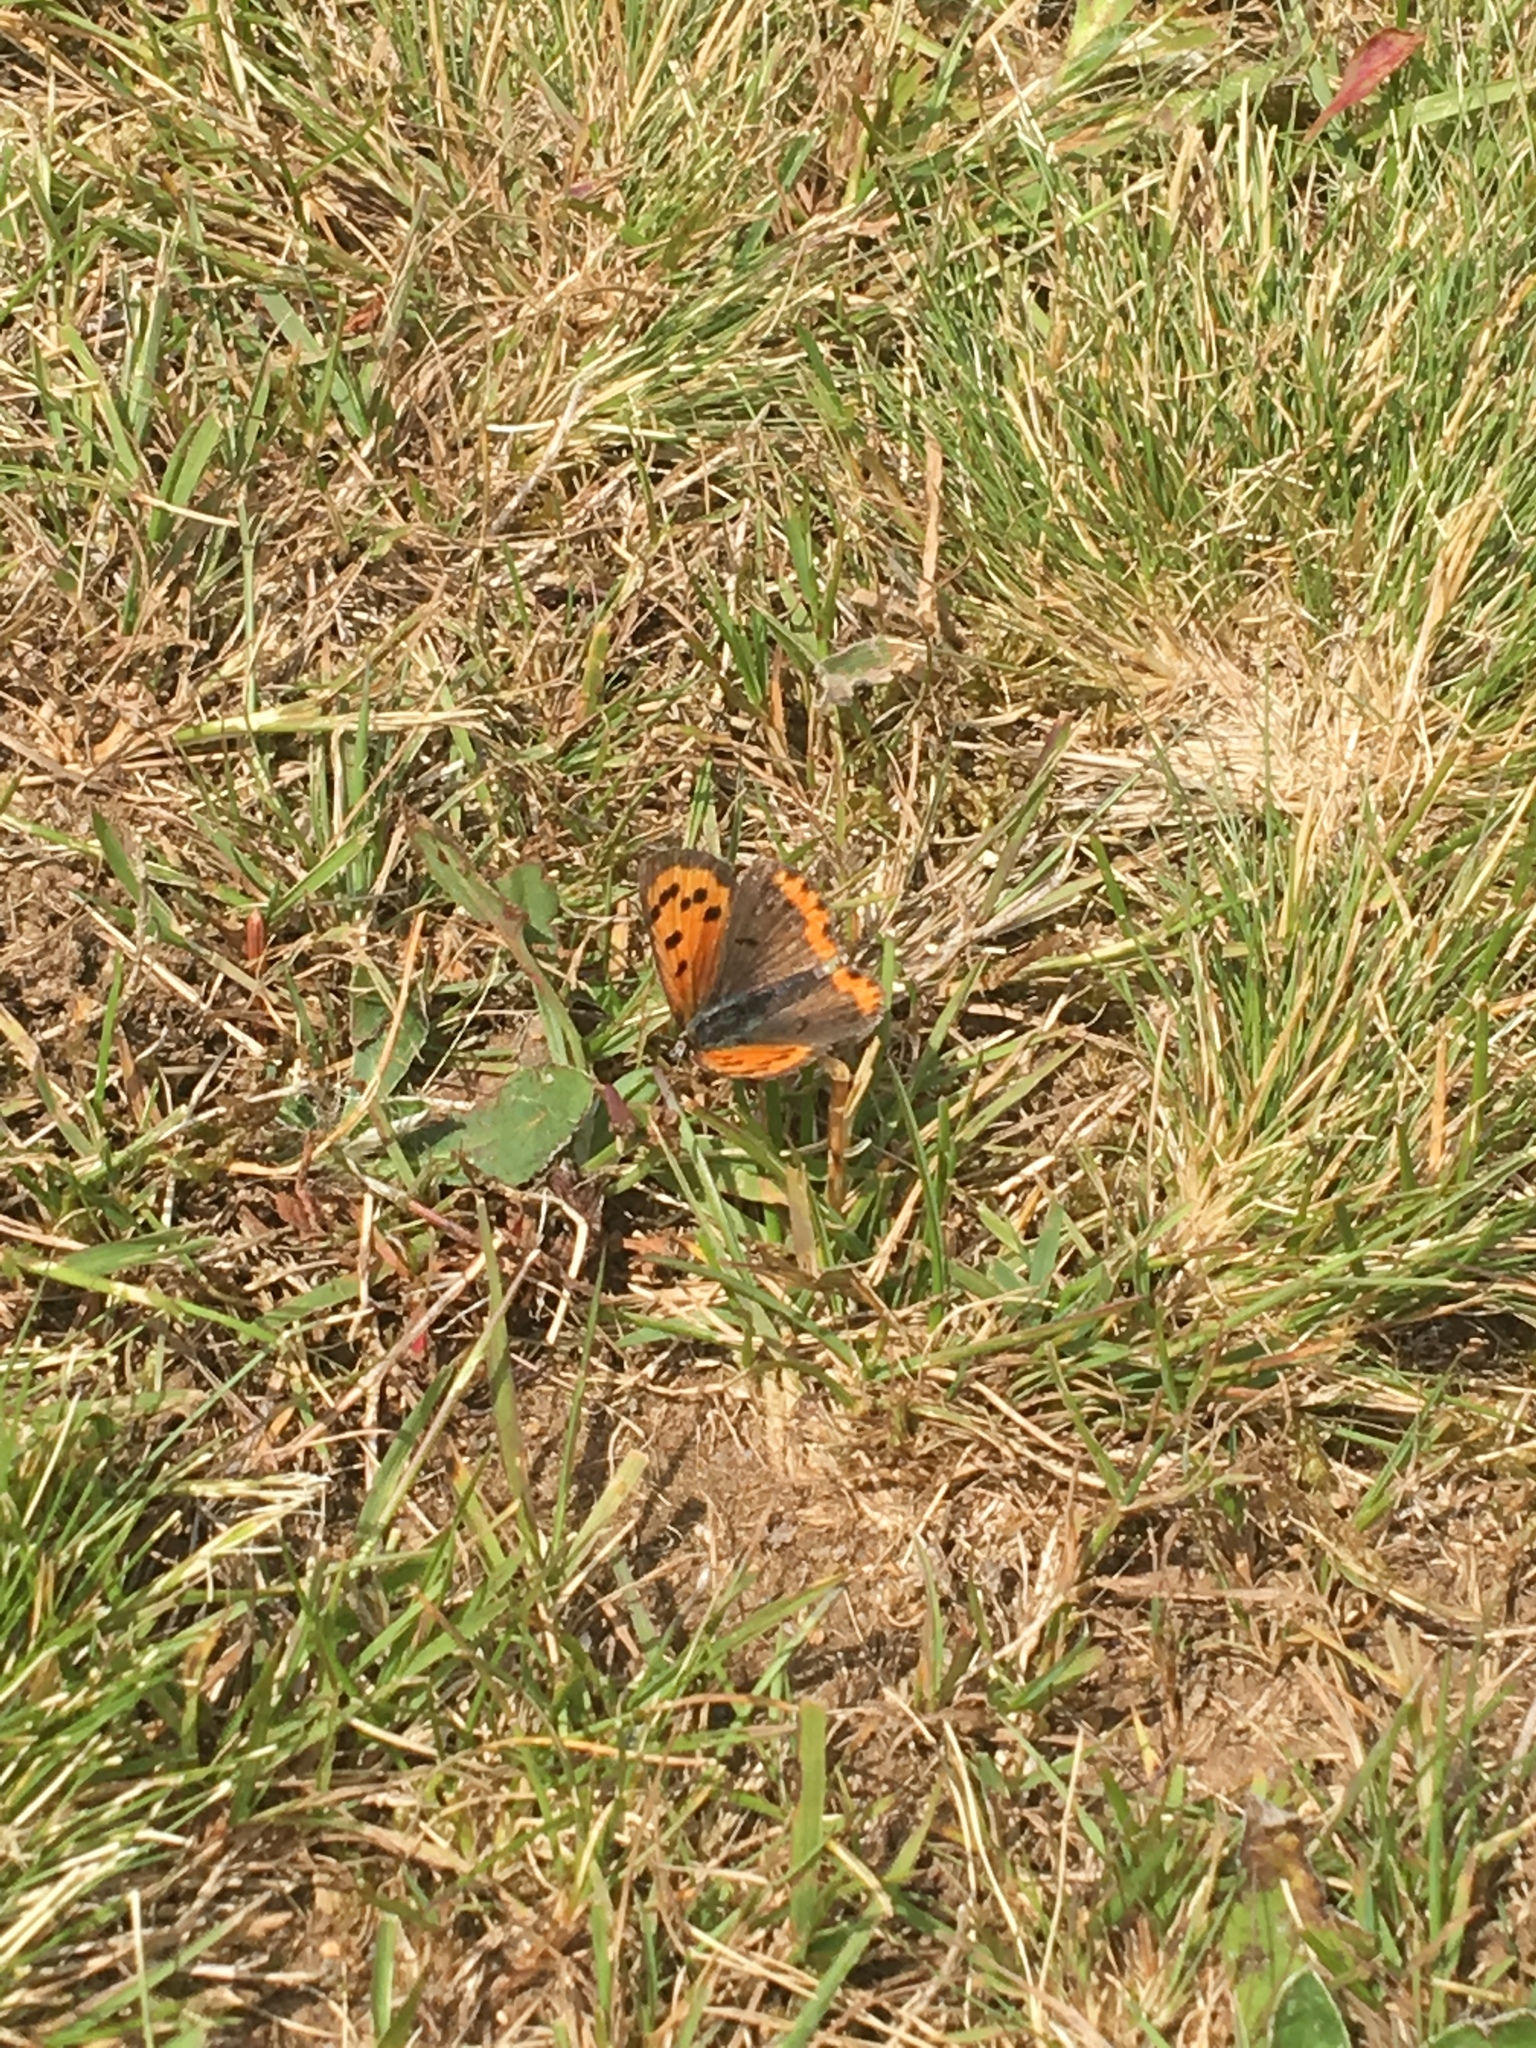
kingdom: Animalia
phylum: Arthropoda
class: Insecta
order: Lepidoptera
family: Lycaenidae
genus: Lycaena
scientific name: Lycaena hypophlaeas
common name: American copper
